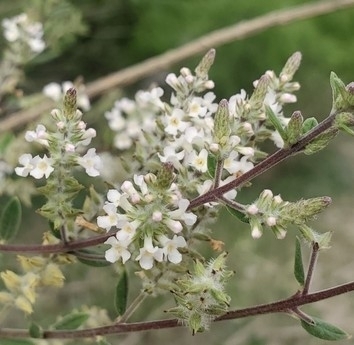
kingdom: Plantae
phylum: Tracheophyta
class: Magnoliopsida
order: Lamiales
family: Verbenaceae
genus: Aloysia
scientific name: Aloysia gratissima
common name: Common bee-brush
